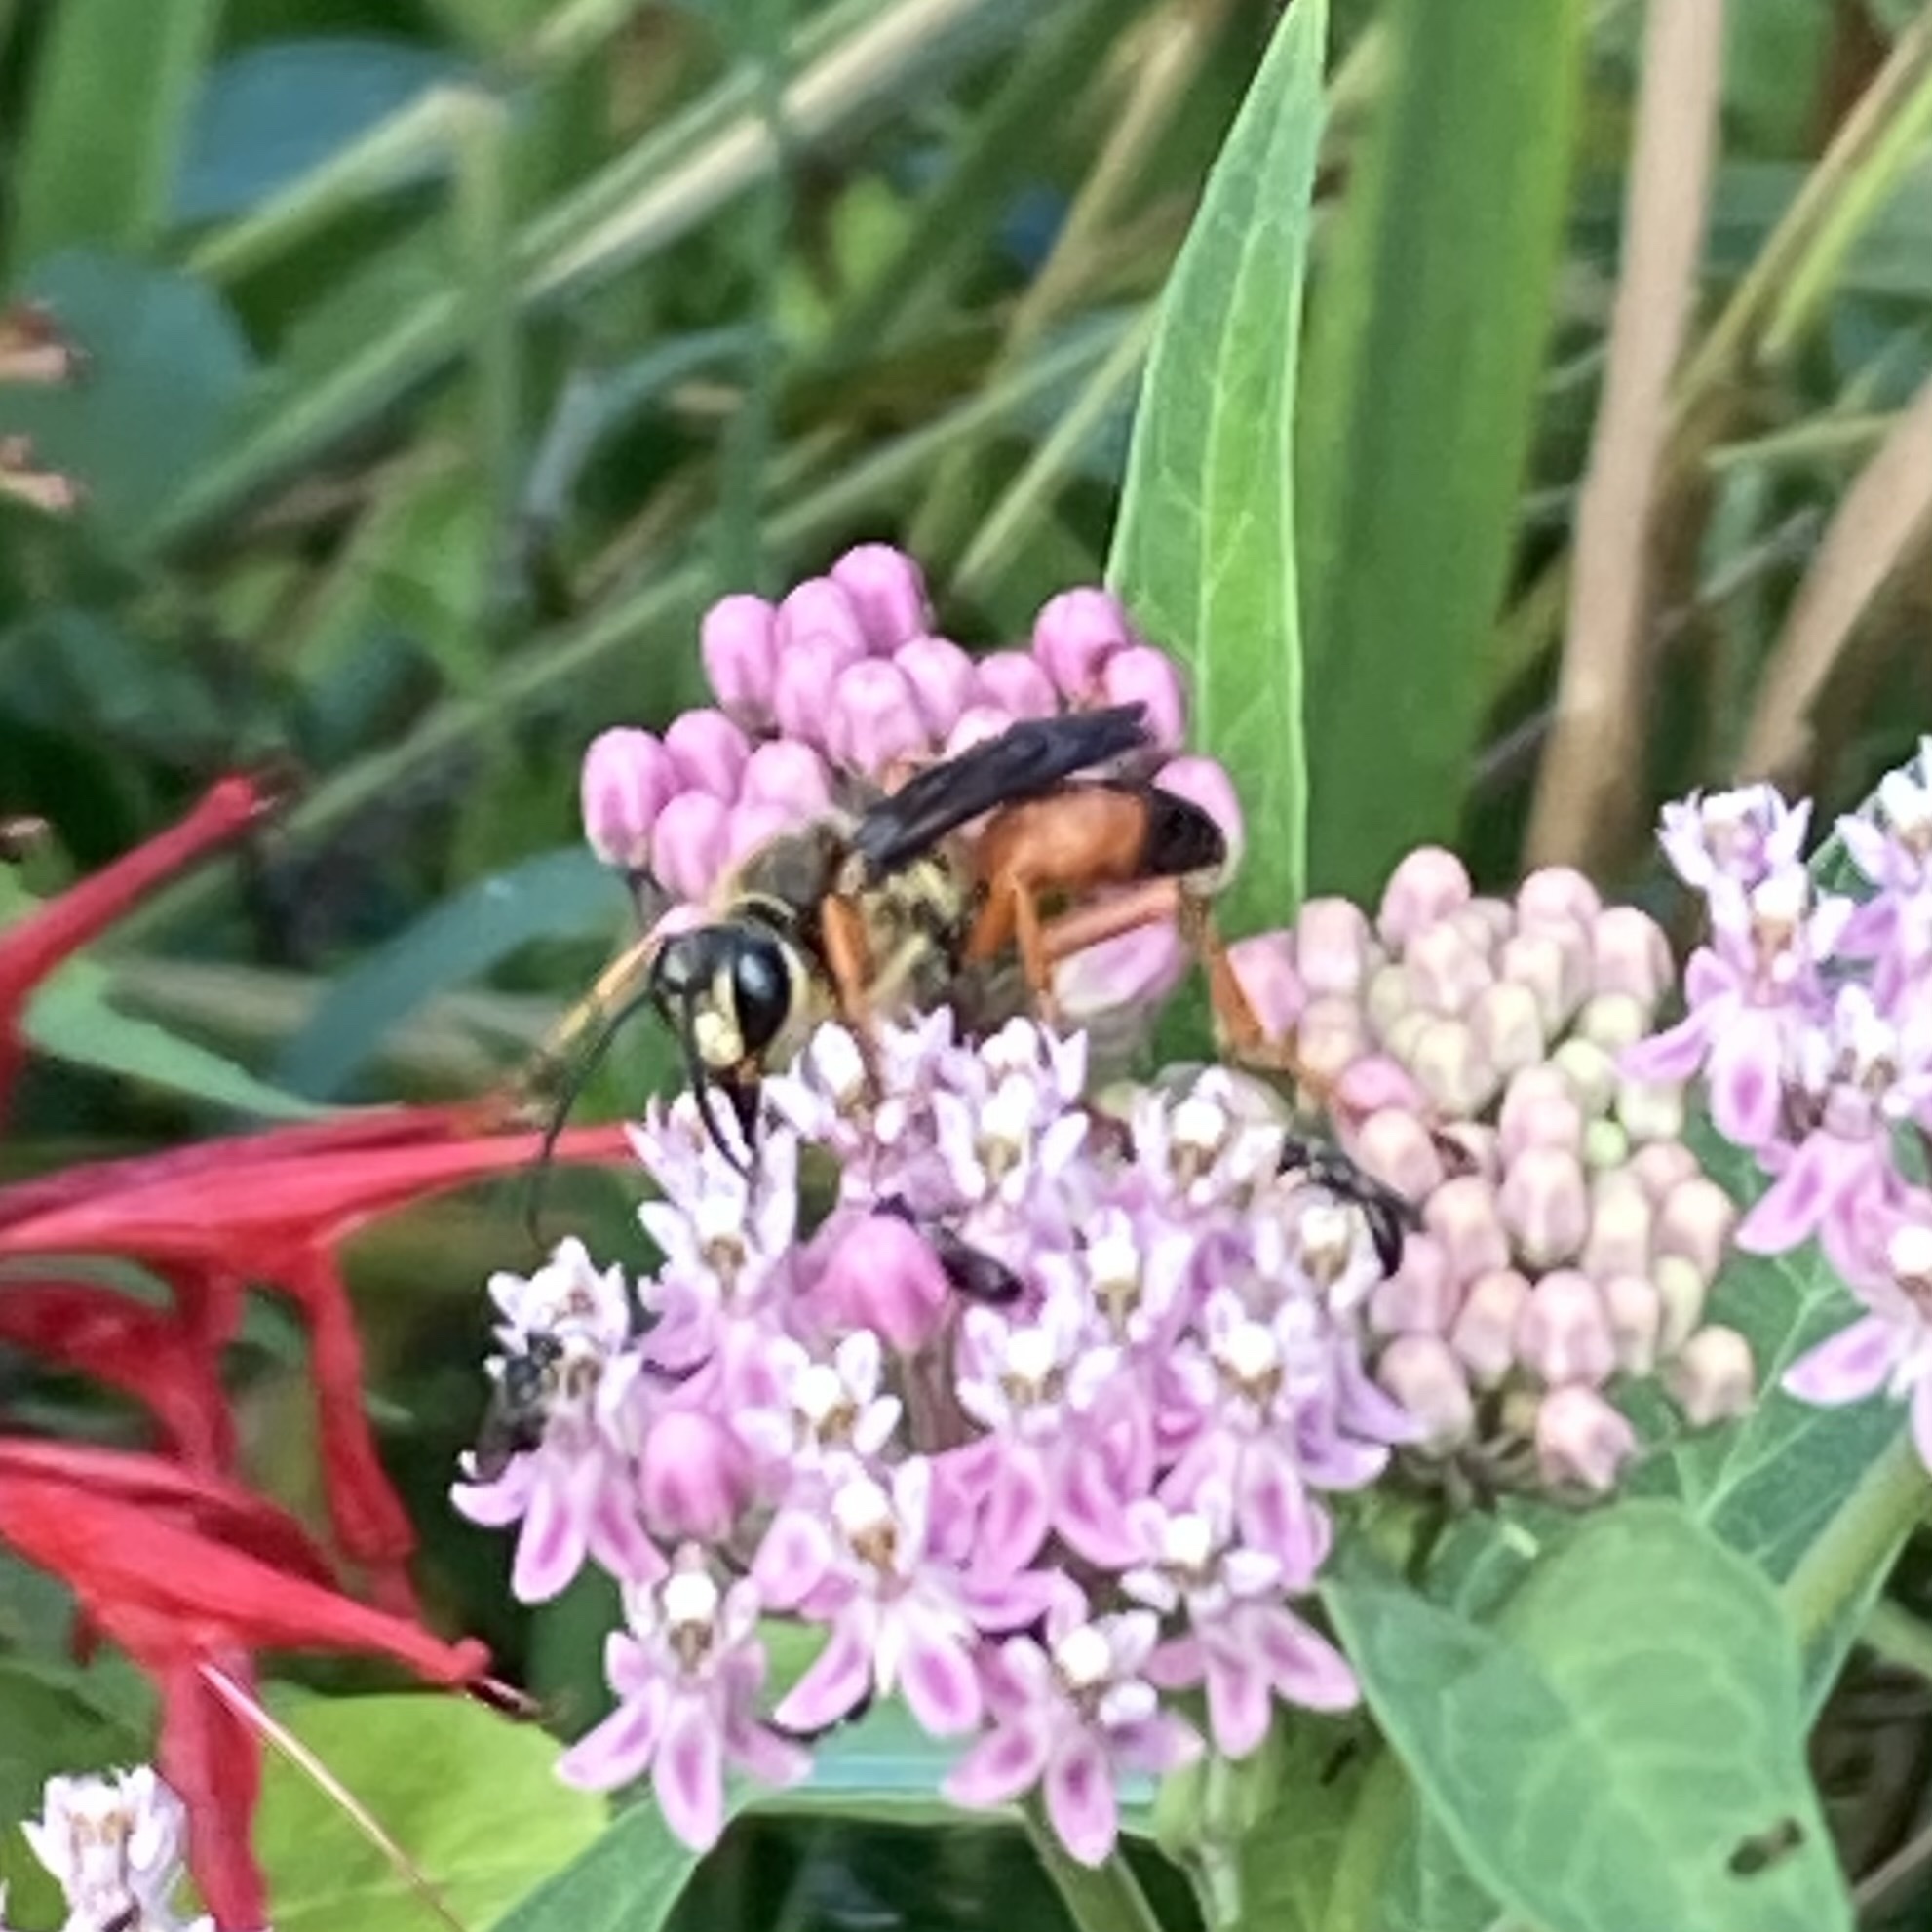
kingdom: Animalia
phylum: Arthropoda
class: Insecta
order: Hymenoptera
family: Sphecidae
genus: Sphex
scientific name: Sphex ichneumoneus
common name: Great golden digger wasp
